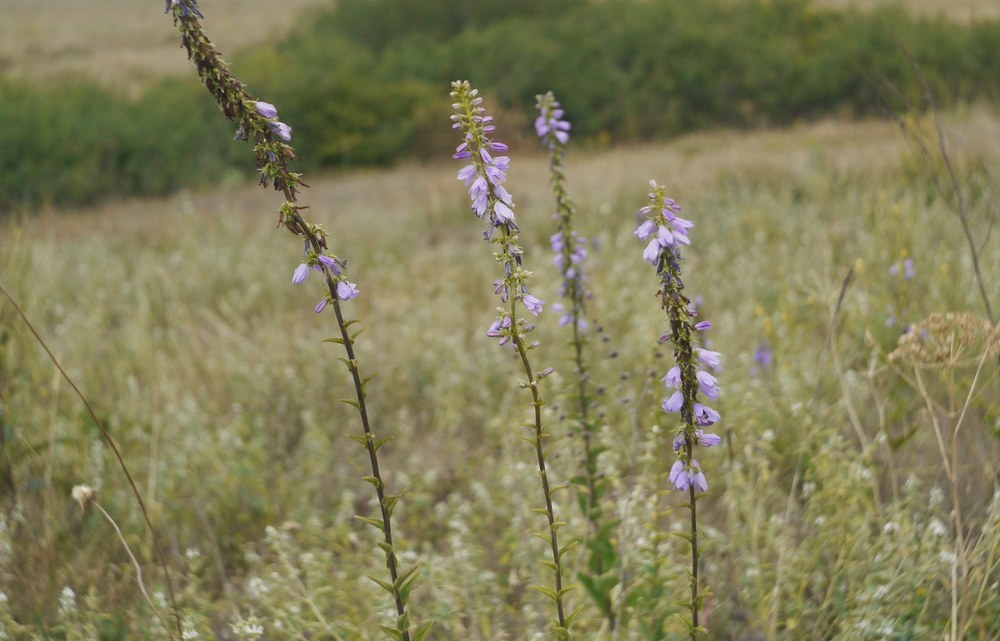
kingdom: Plantae
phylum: Tracheophyta
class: Magnoliopsida
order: Asterales
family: Campanulaceae
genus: Campanula
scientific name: Campanula bononiensis
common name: Pale bellflower
